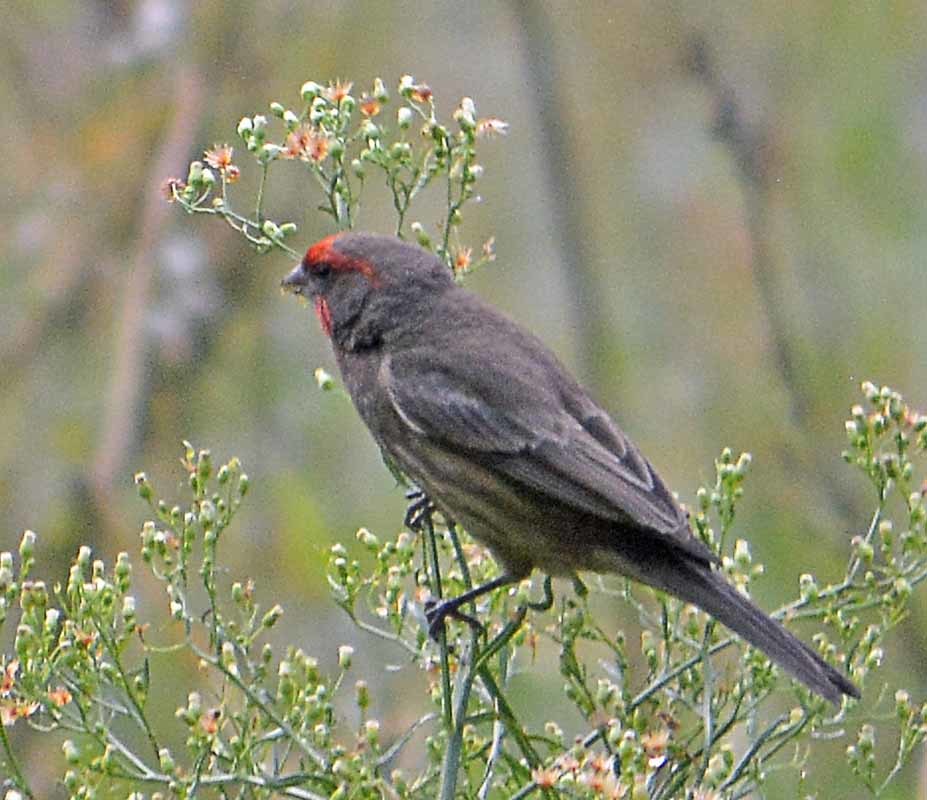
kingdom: Animalia
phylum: Chordata
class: Aves
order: Passeriformes
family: Fringillidae
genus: Haemorhous
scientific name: Haemorhous mexicanus
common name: House finch
